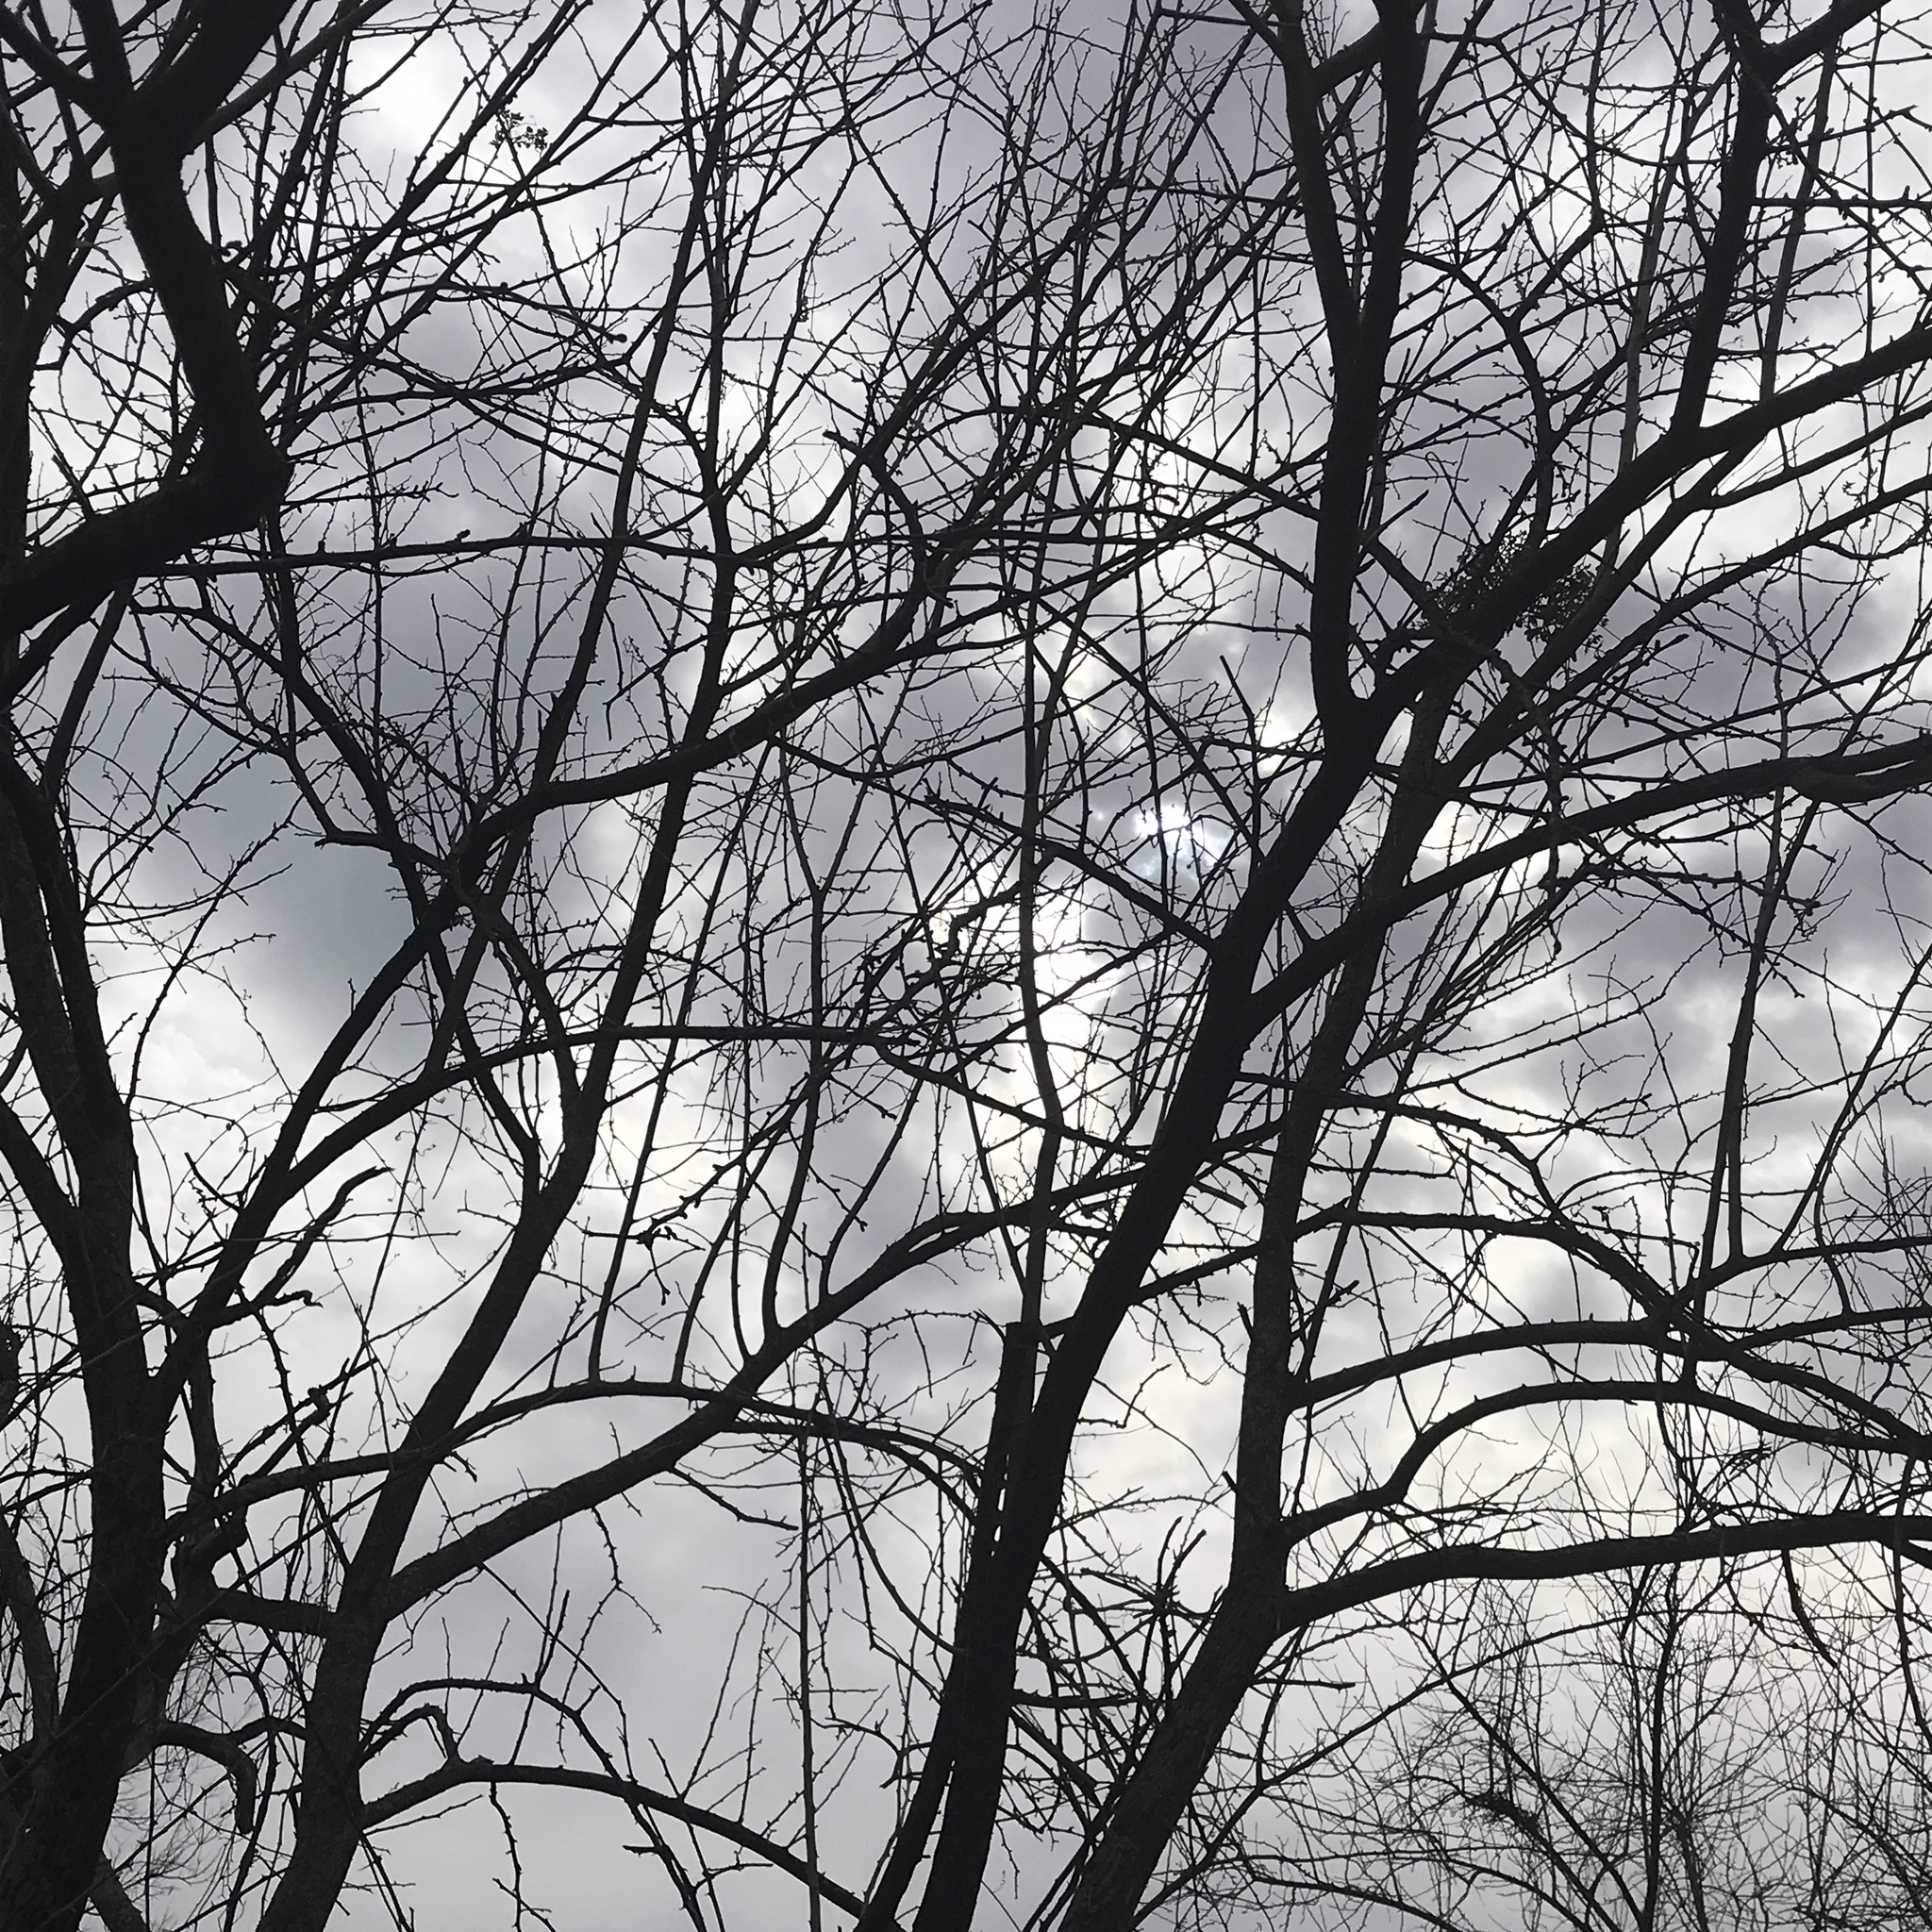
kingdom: Plantae
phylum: Tracheophyta
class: Magnoliopsida
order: Rosales
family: Moraceae
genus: Maclura
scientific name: Maclura pomifera
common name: Osage-orange
